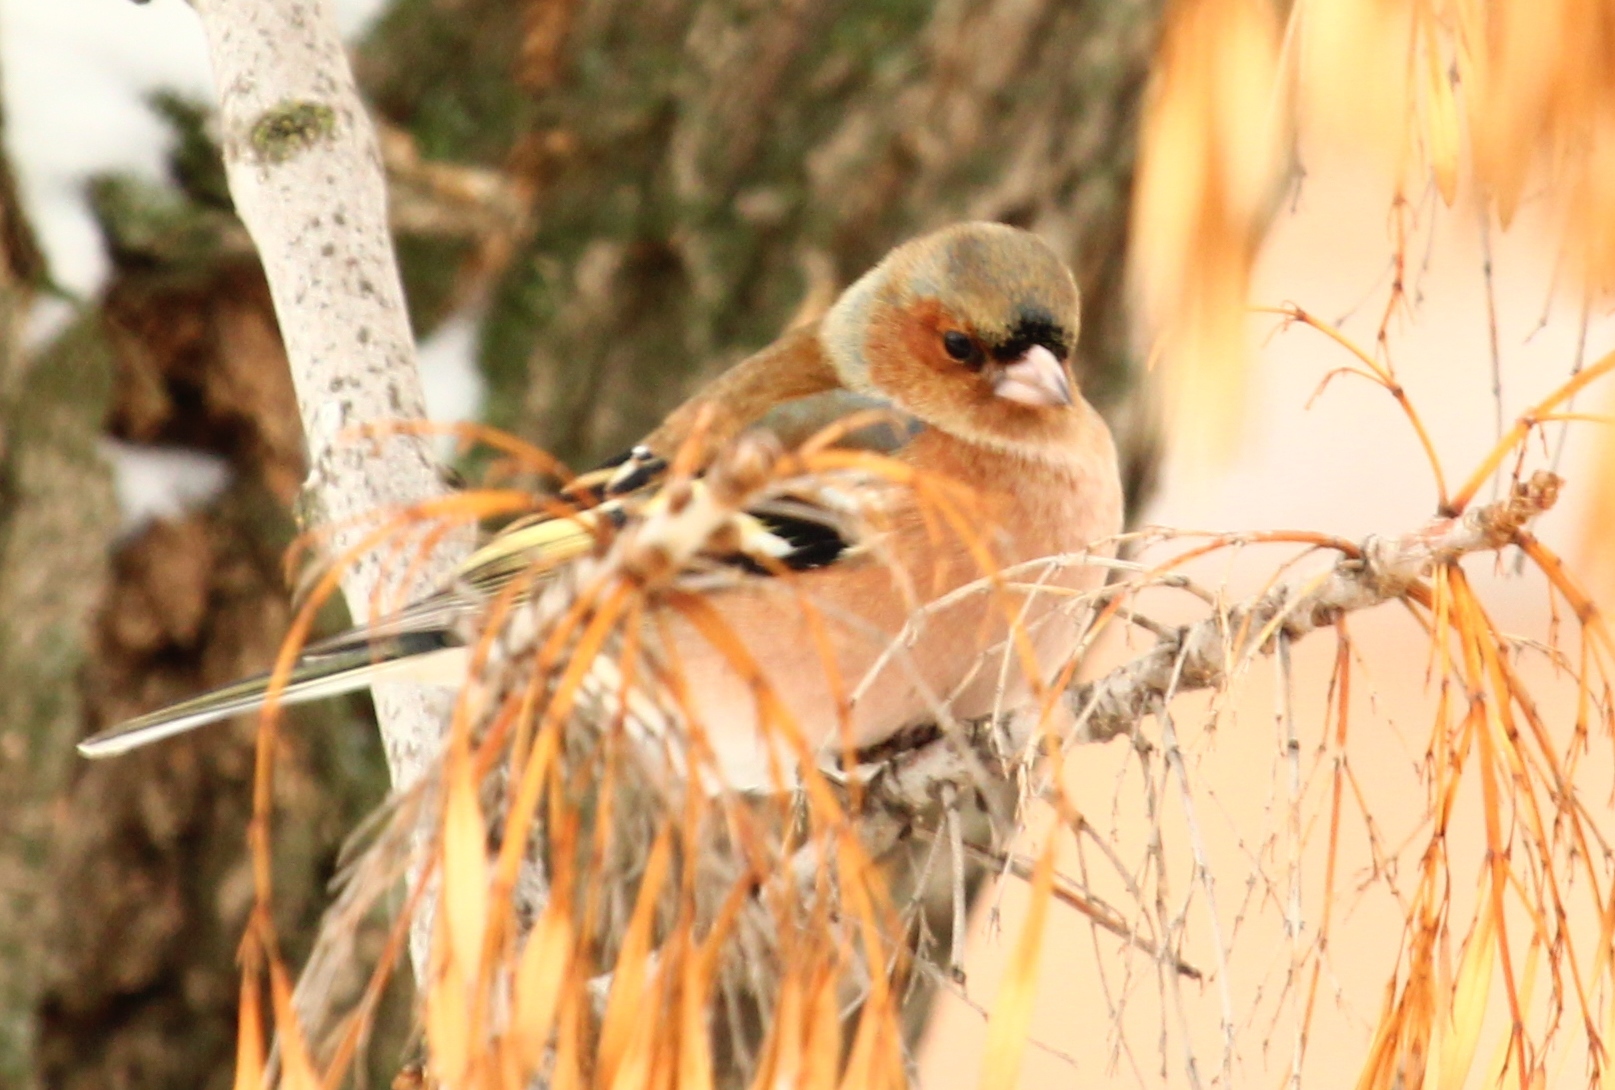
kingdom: Animalia
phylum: Chordata
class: Aves
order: Passeriformes
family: Fringillidae
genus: Fringilla
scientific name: Fringilla coelebs
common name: Common chaffinch
